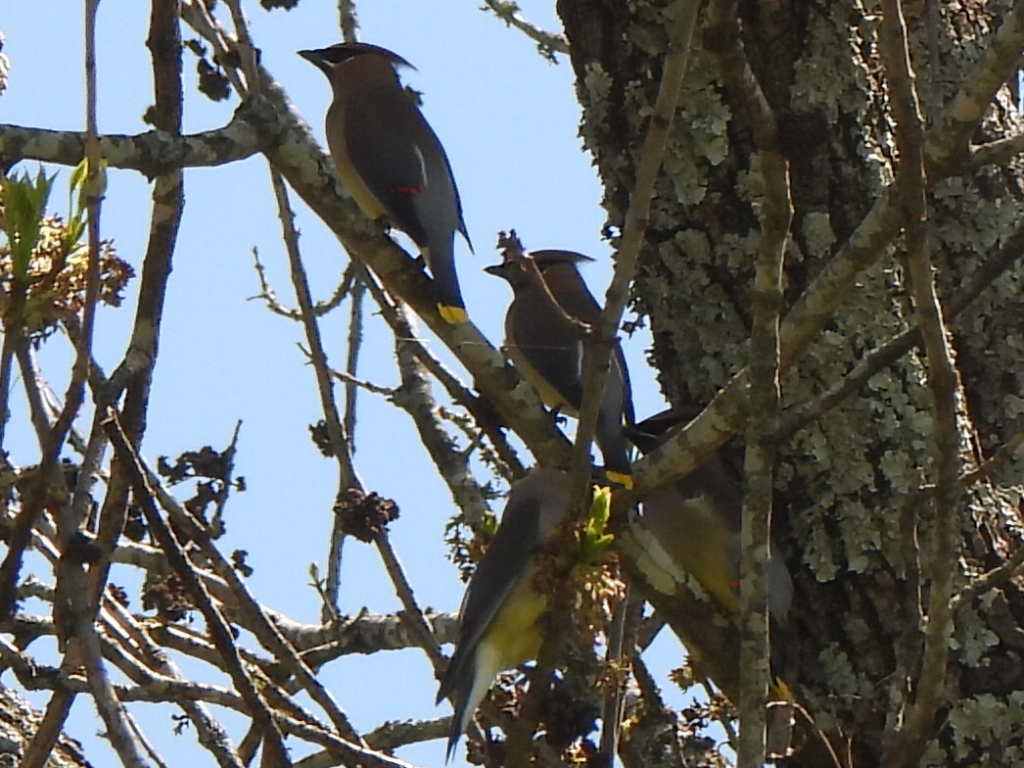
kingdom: Animalia
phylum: Chordata
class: Aves
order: Passeriformes
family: Bombycillidae
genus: Bombycilla
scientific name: Bombycilla cedrorum
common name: Cedar waxwing
